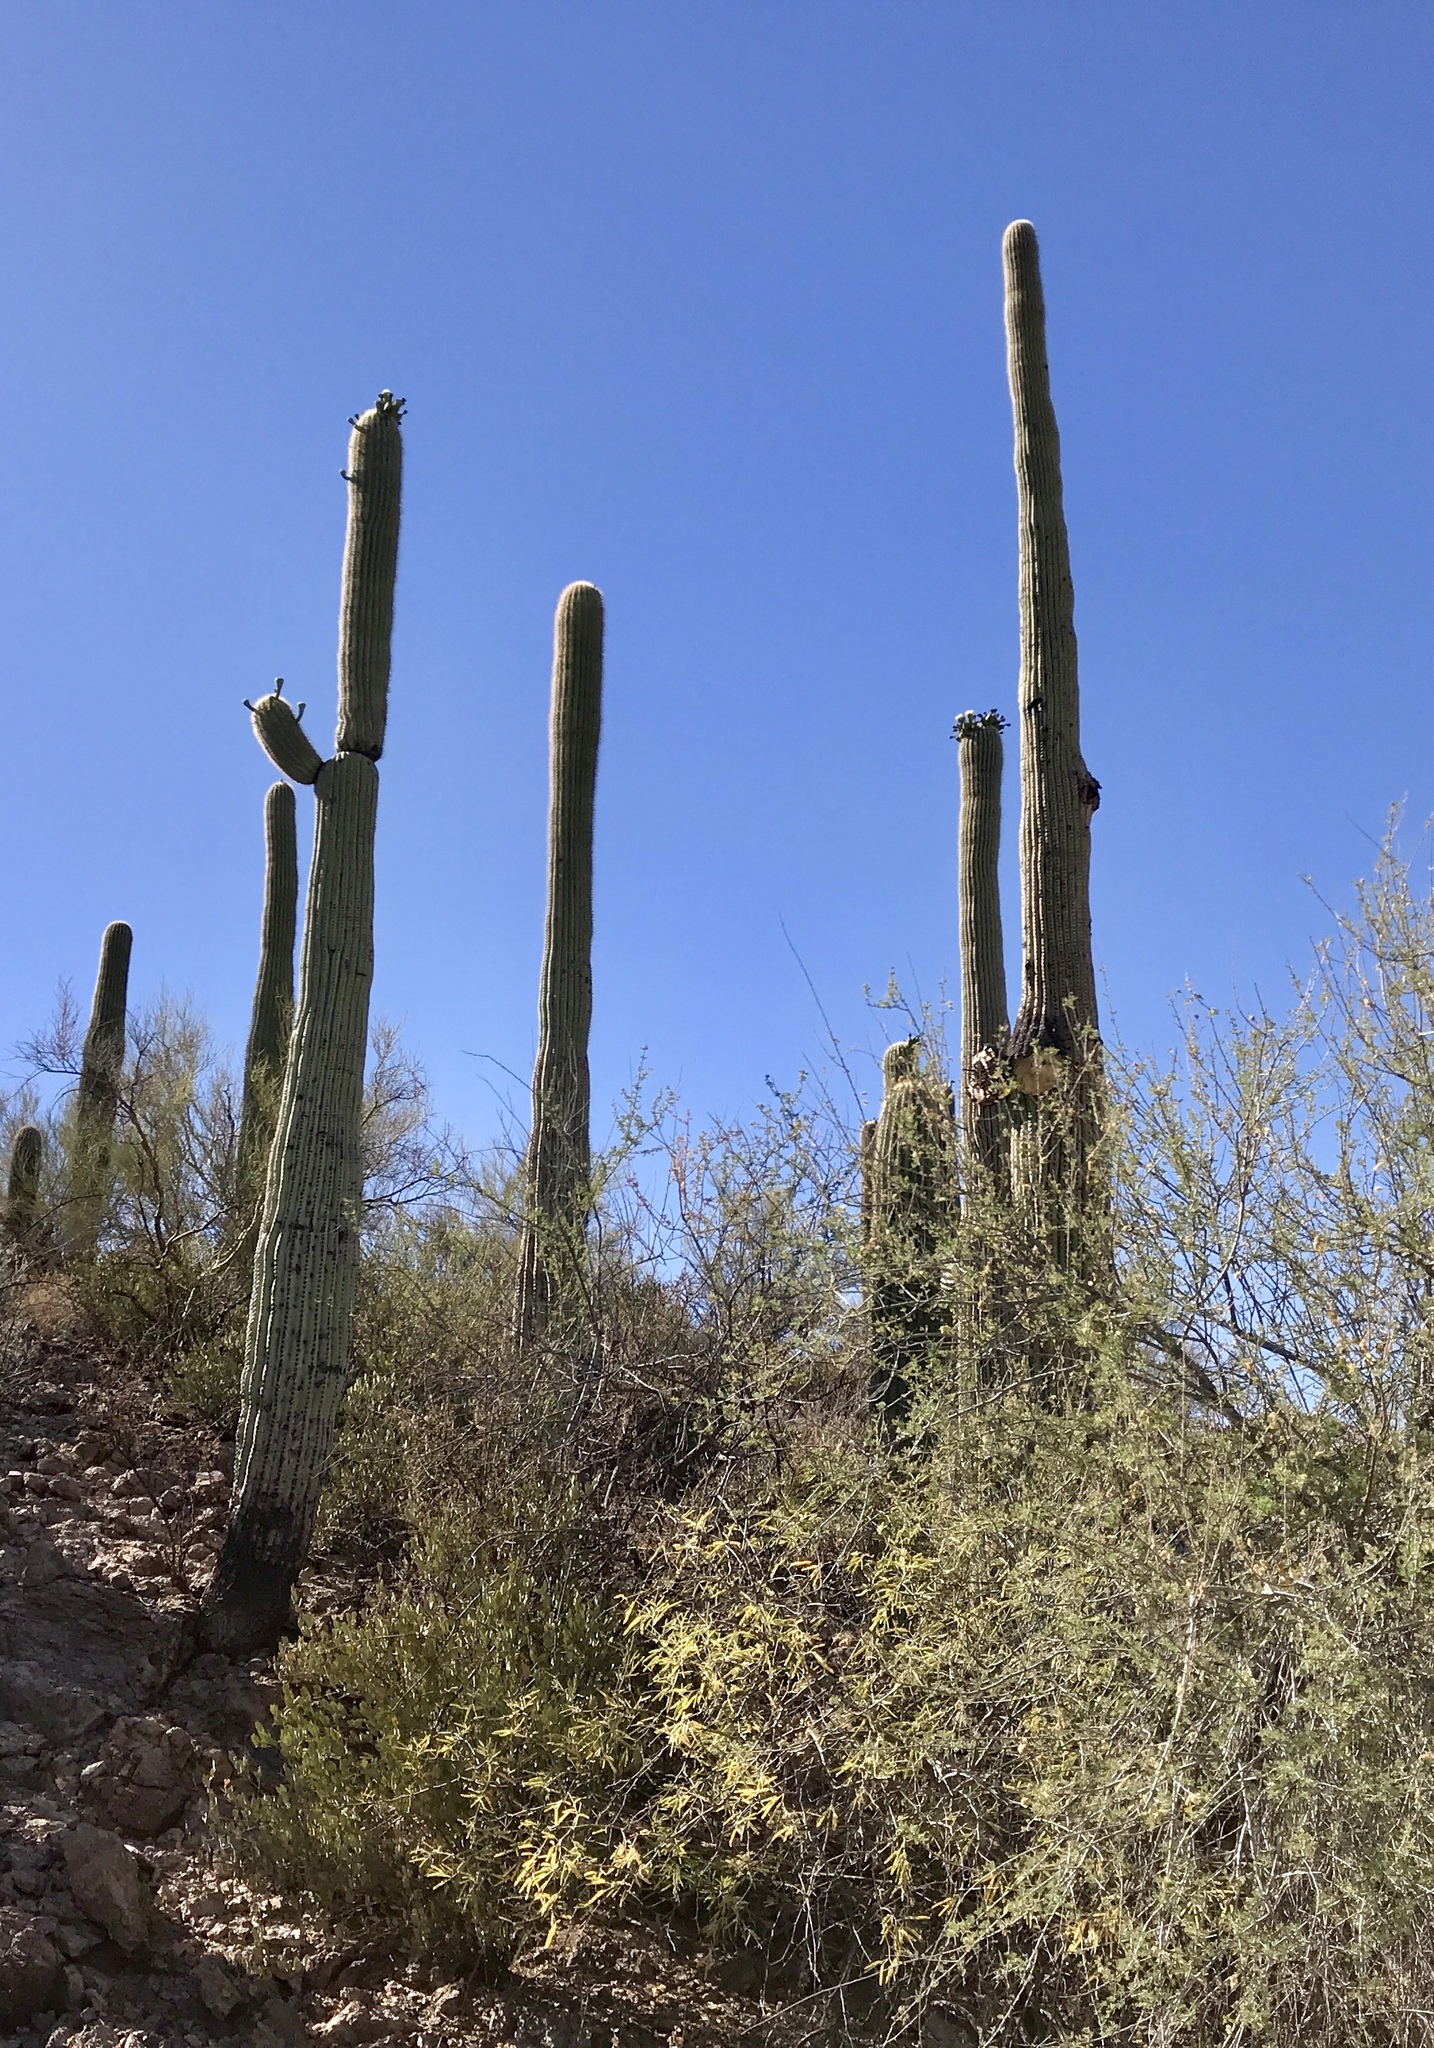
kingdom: Plantae
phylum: Tracheophyta
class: Magnoliopsida
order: Caryophyllales
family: Cactaceae
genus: Carnegiea
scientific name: Carnegiea gigantea
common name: Saguaro
